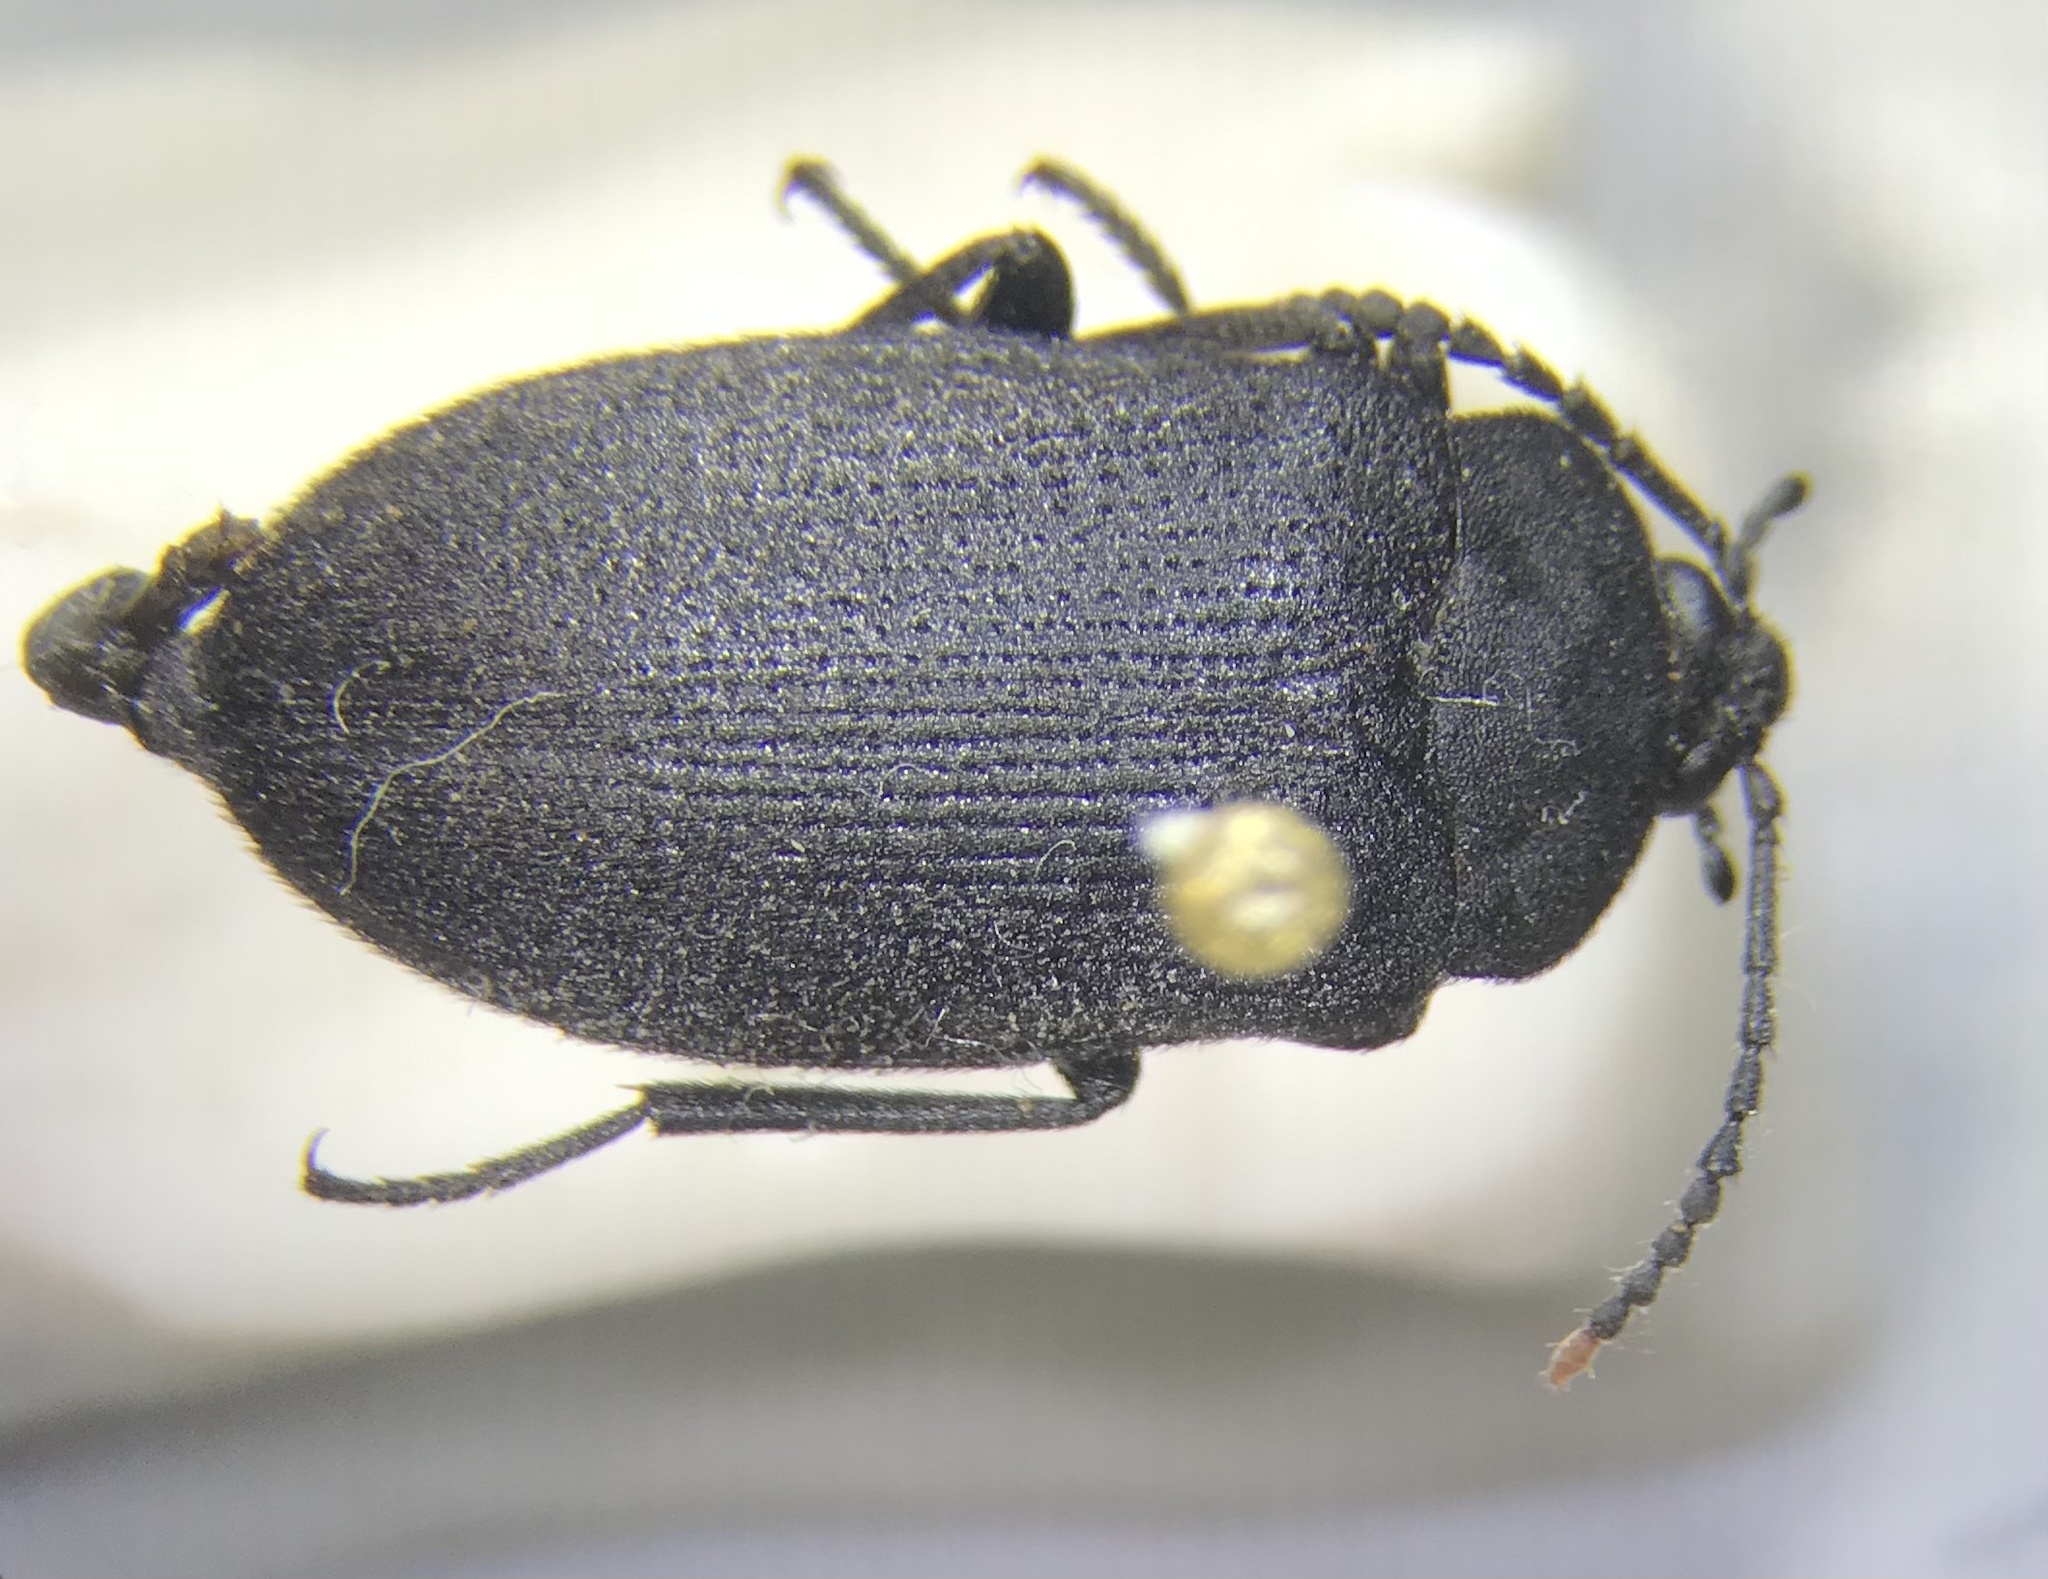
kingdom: Animalia
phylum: Arthropoda
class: Insecta
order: Coleoptera
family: Tetratomidae
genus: Penthe
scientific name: Penthe pimelia
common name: Velvety bark beetle
